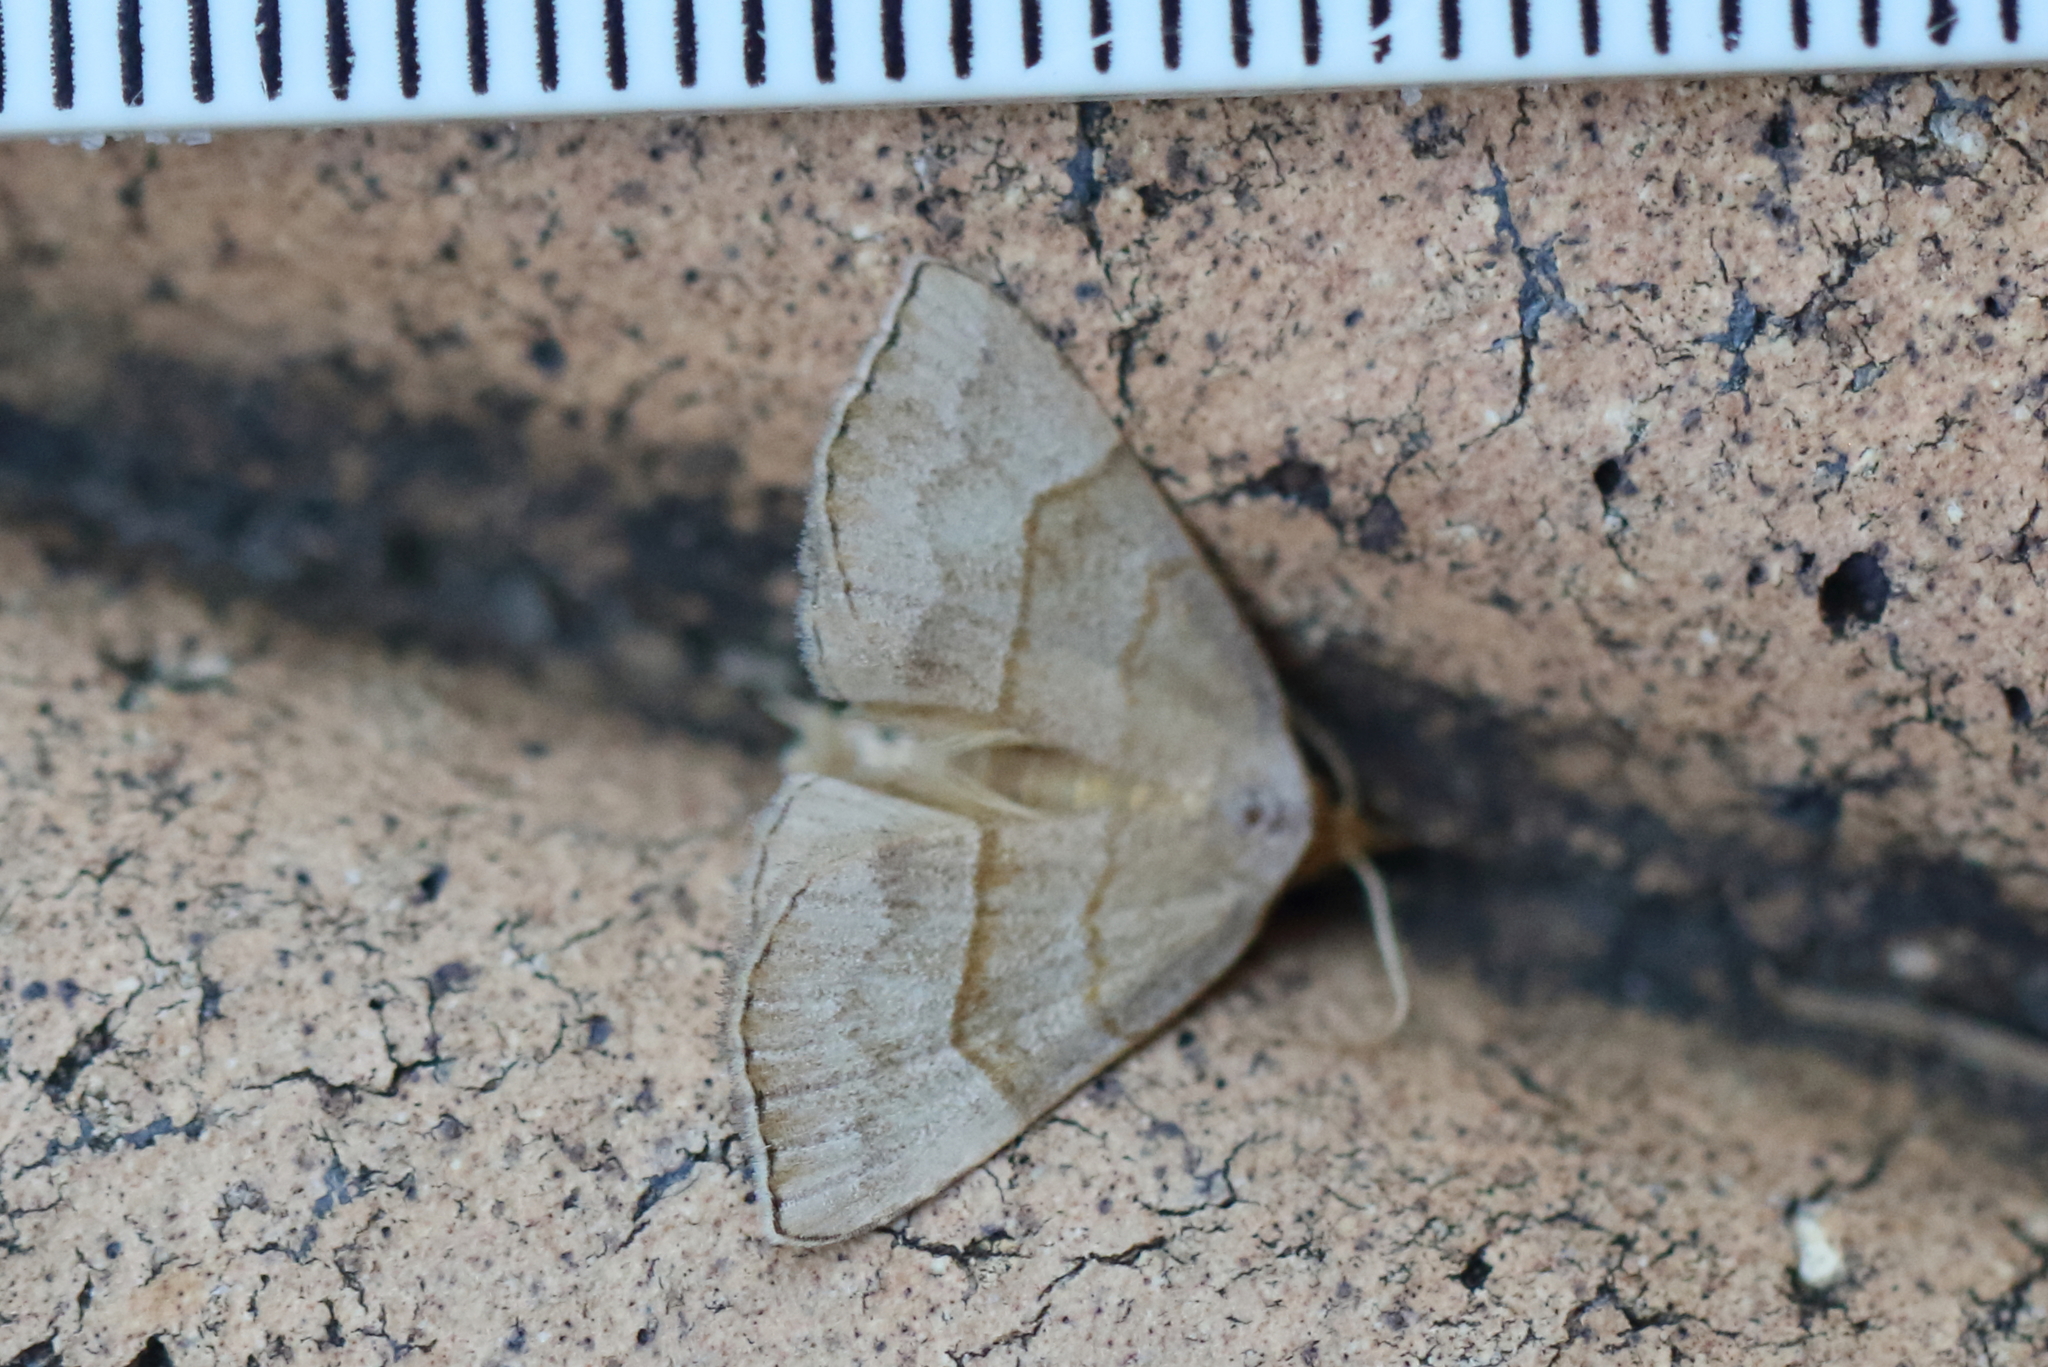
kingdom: Animalia
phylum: Arthropoda
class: Insecta
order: Lepidoptera
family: Erebidae
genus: Meranda
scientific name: Meranda susialis
